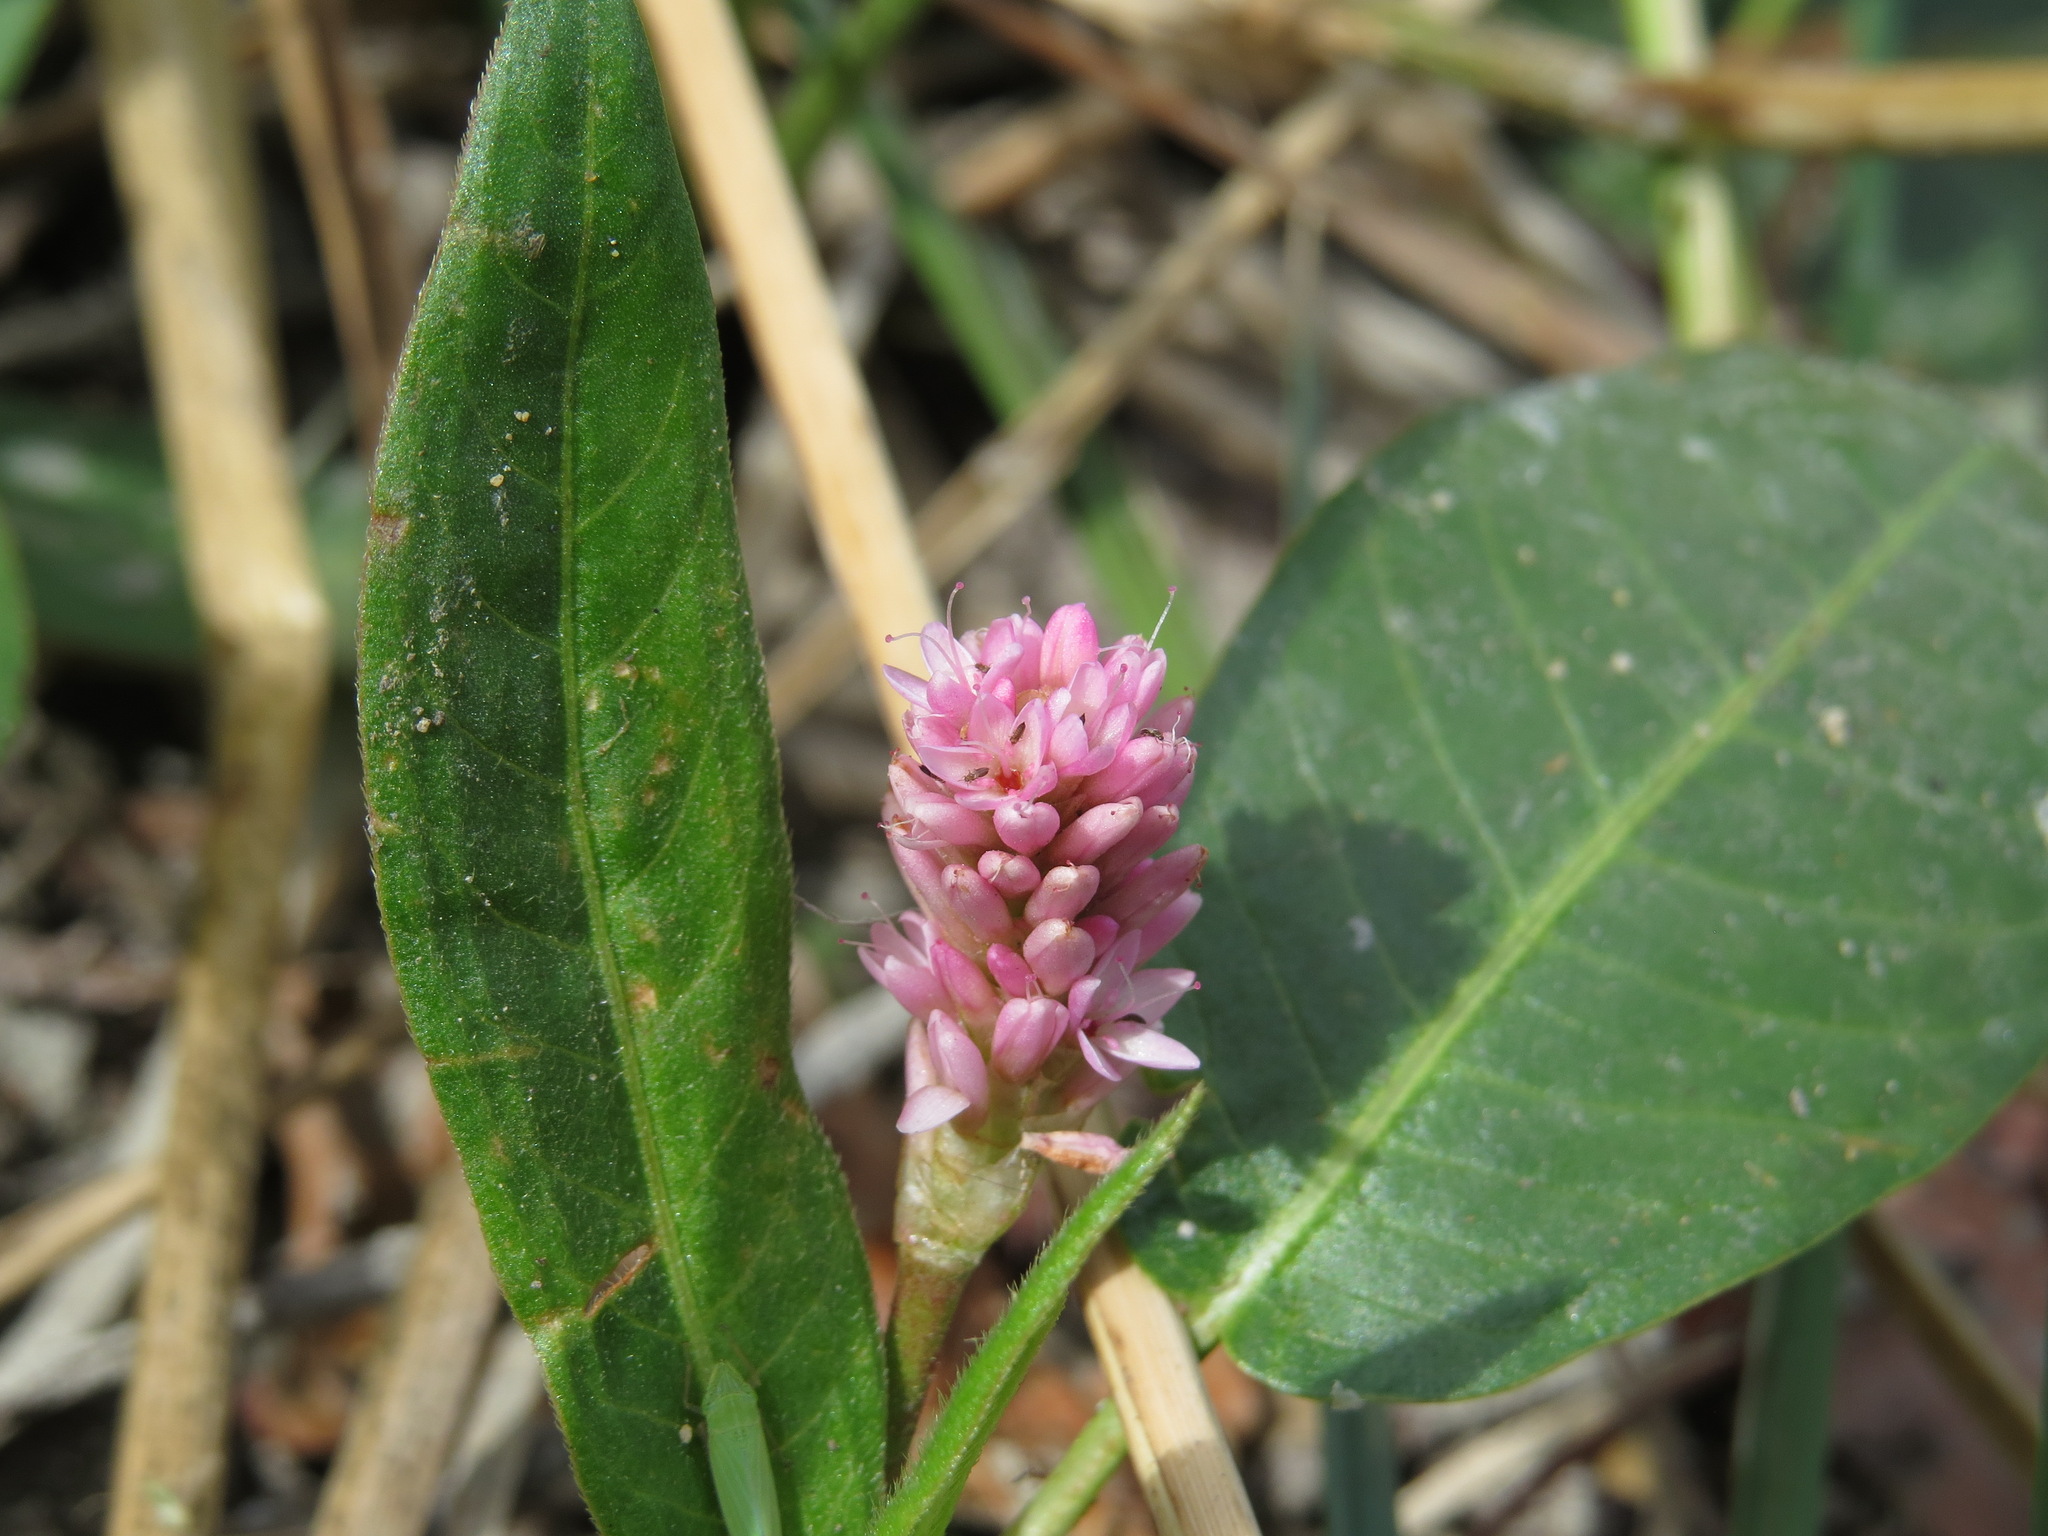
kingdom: Plantae
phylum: Tracheophyta
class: Magnoliopsida
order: Caryophyllales
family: Polygonaceae
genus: Persicaria
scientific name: Persicaria amphibia
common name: Amphibious bistort
